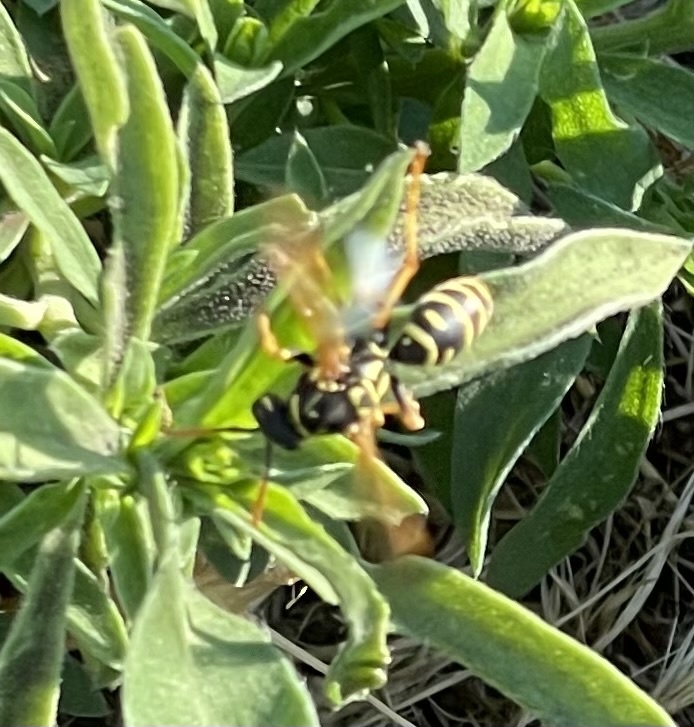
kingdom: Animalia
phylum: Arthropoda
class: Insecta
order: Hymenoptera
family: Eumenidae
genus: Polistes
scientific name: Polistes dominula
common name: Paper wasp
